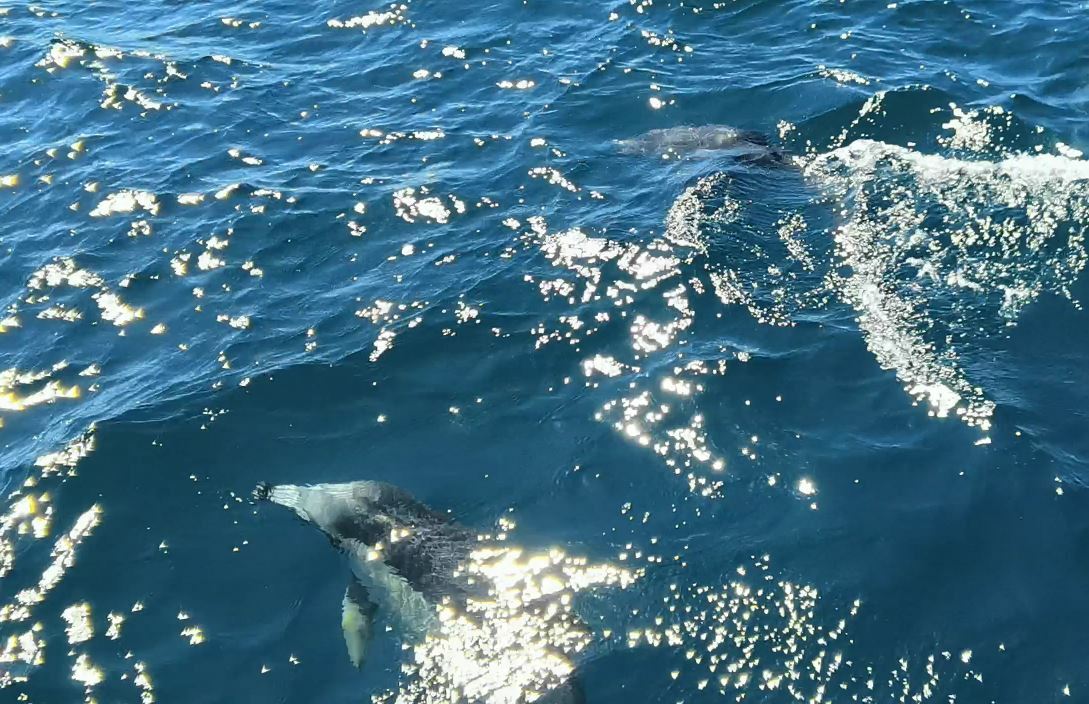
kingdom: Animalia
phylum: Chordata
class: Mammalia
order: Cetacea
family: Delphinidae
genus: Delphinus
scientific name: Delphinus delphis
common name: Common dolphin
